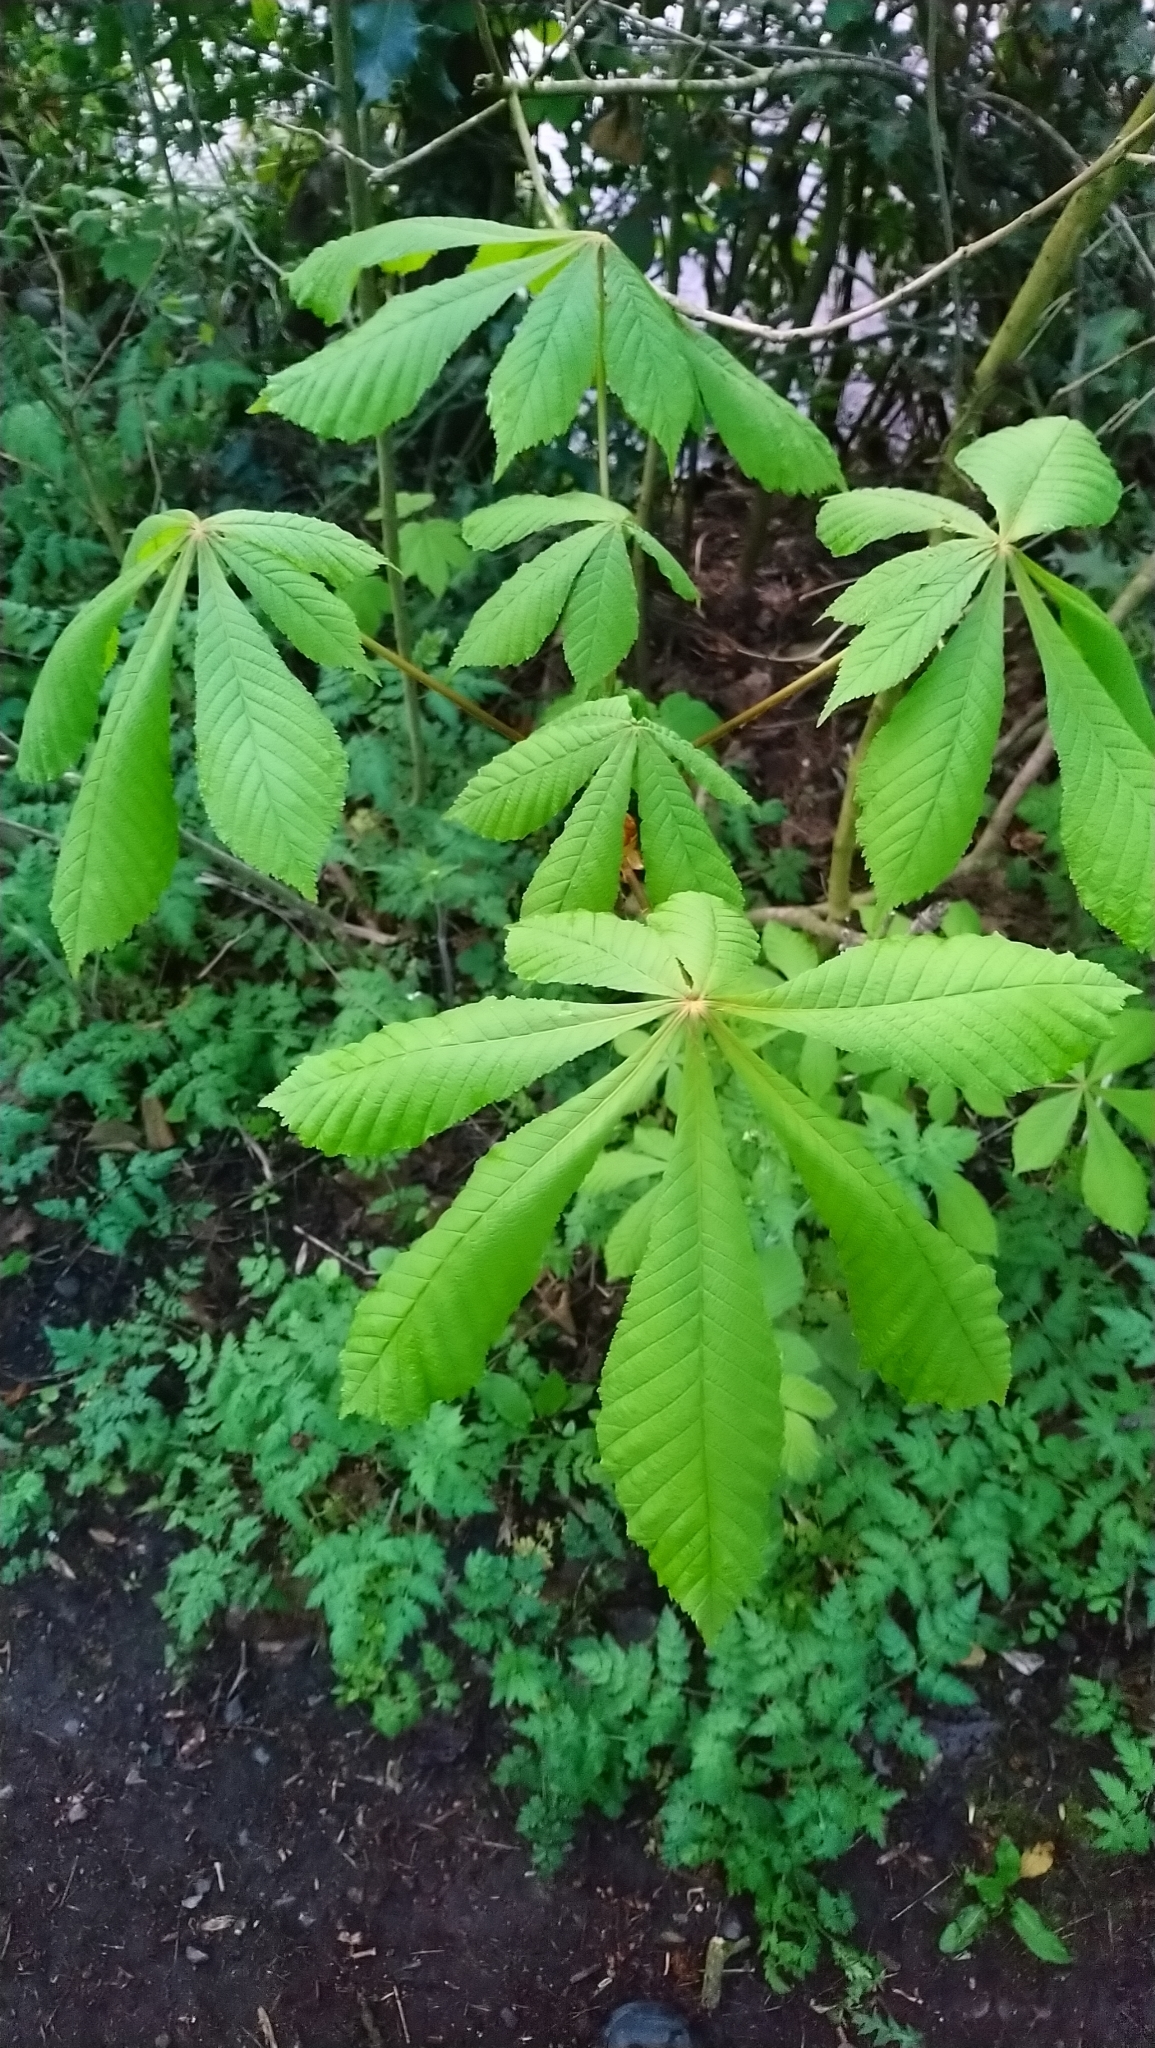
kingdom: Plantae
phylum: Tracheophyta
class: Magnoliopsida
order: Sapindales
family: Sapindaceae
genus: Aesculus
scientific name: Aesculus hippocastanum
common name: Horse-chestnut
